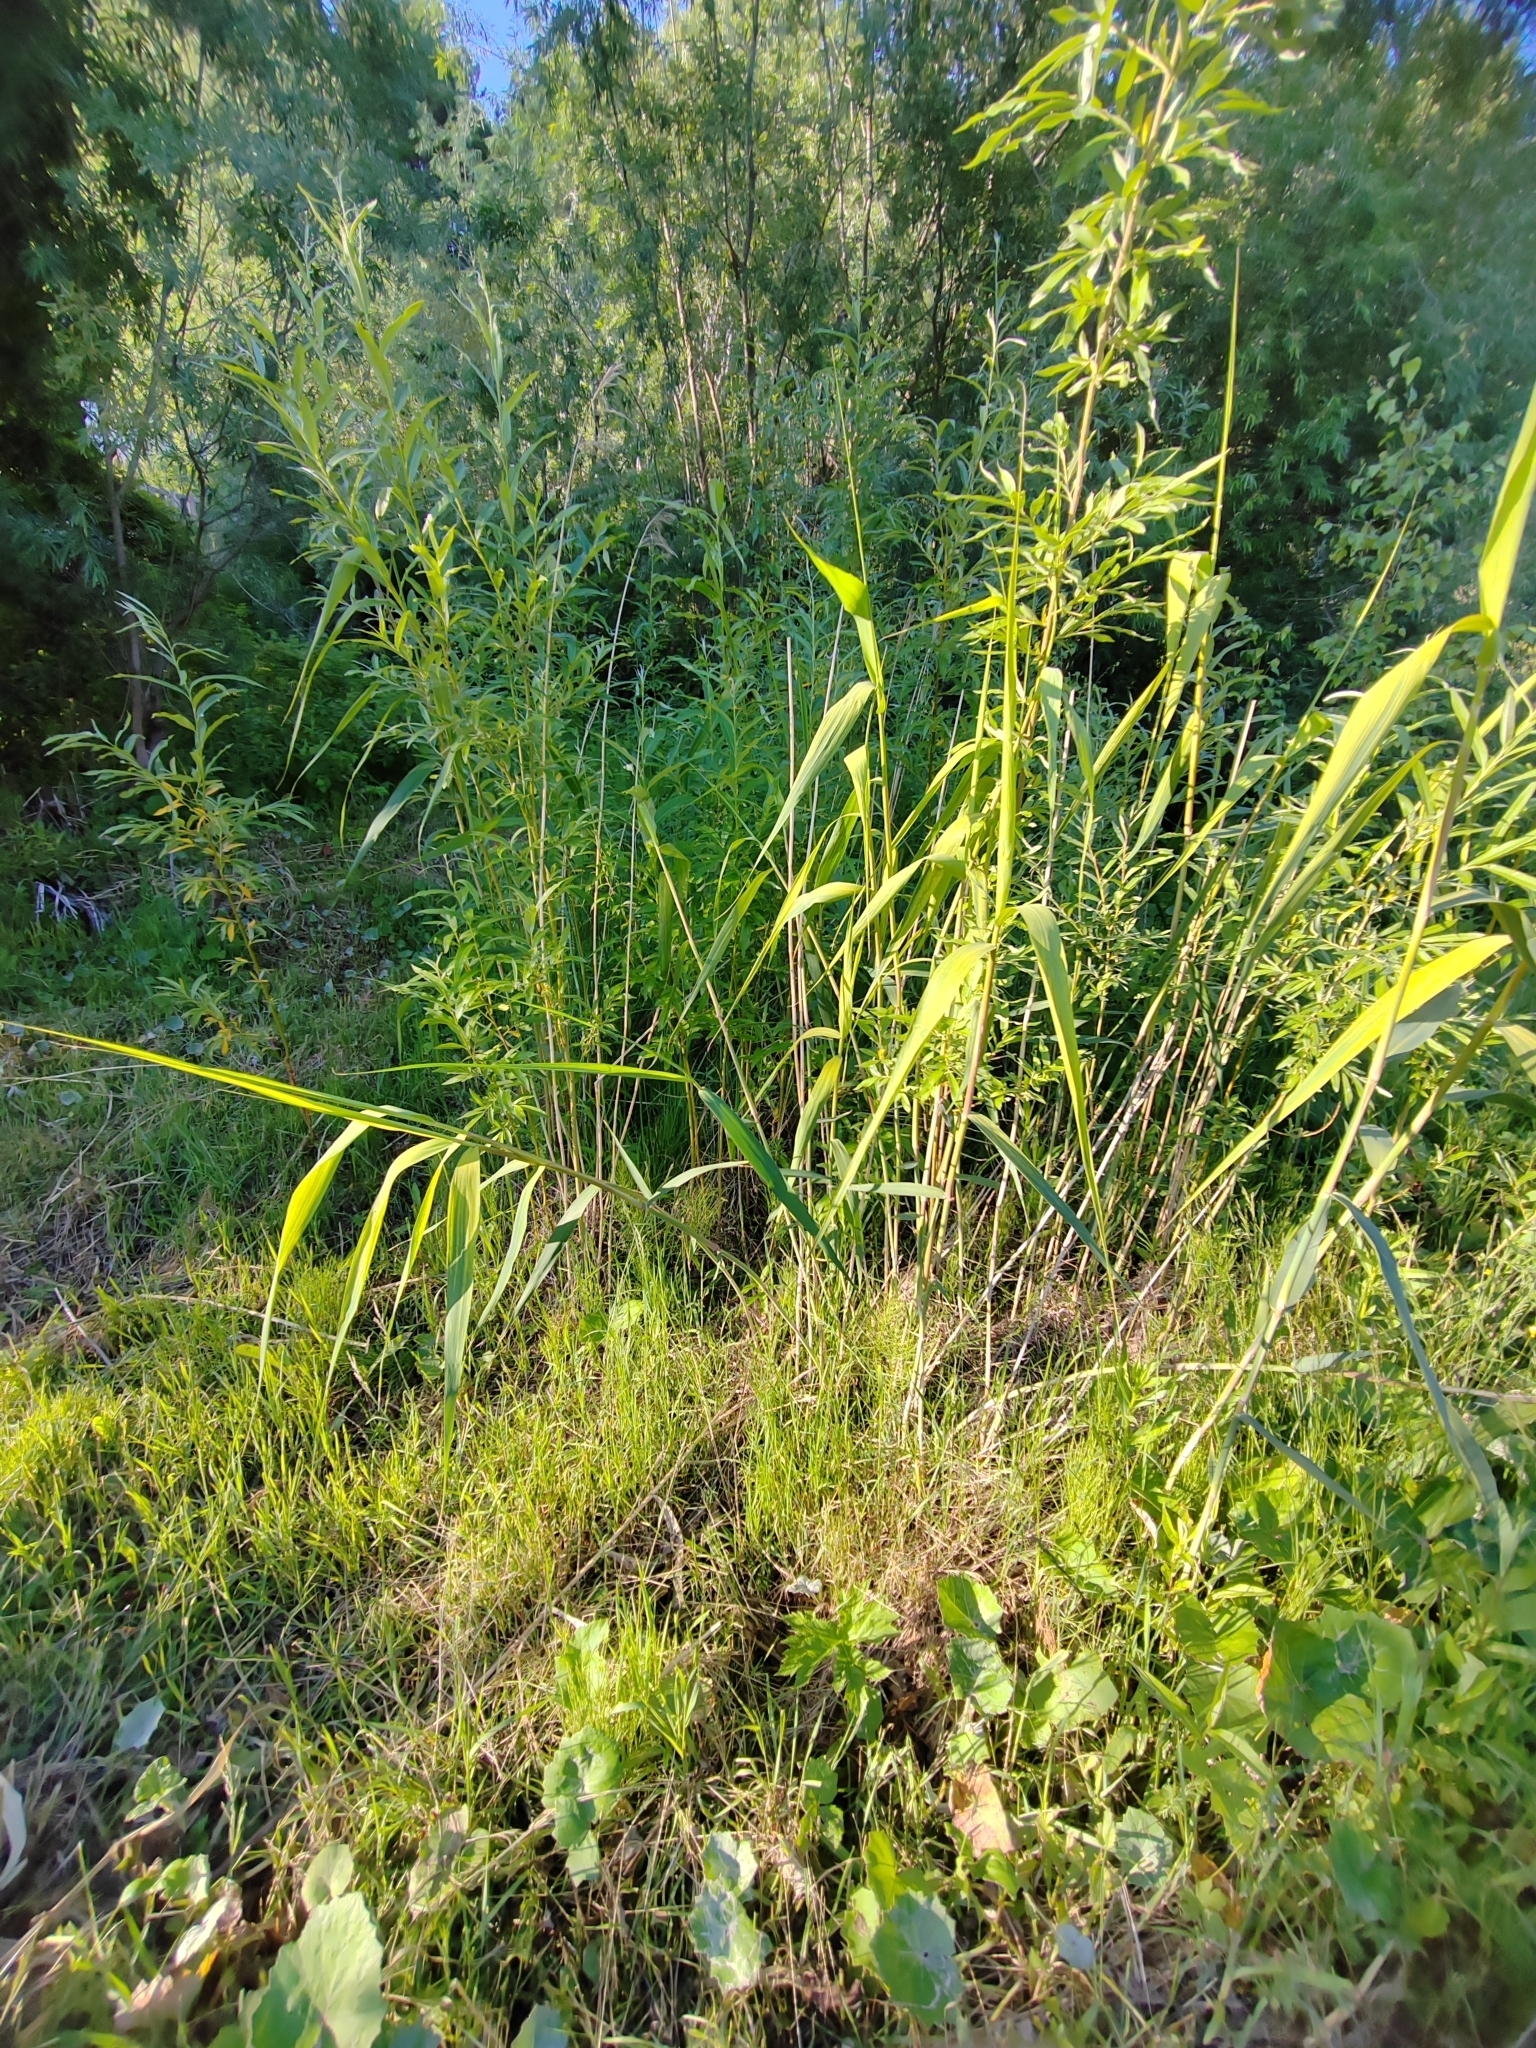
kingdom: Plantae
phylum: Tracheophyta
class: Liliopsida
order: Poales
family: Poaceae
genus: Phragmites
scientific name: Phragmites australis
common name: Common reed
